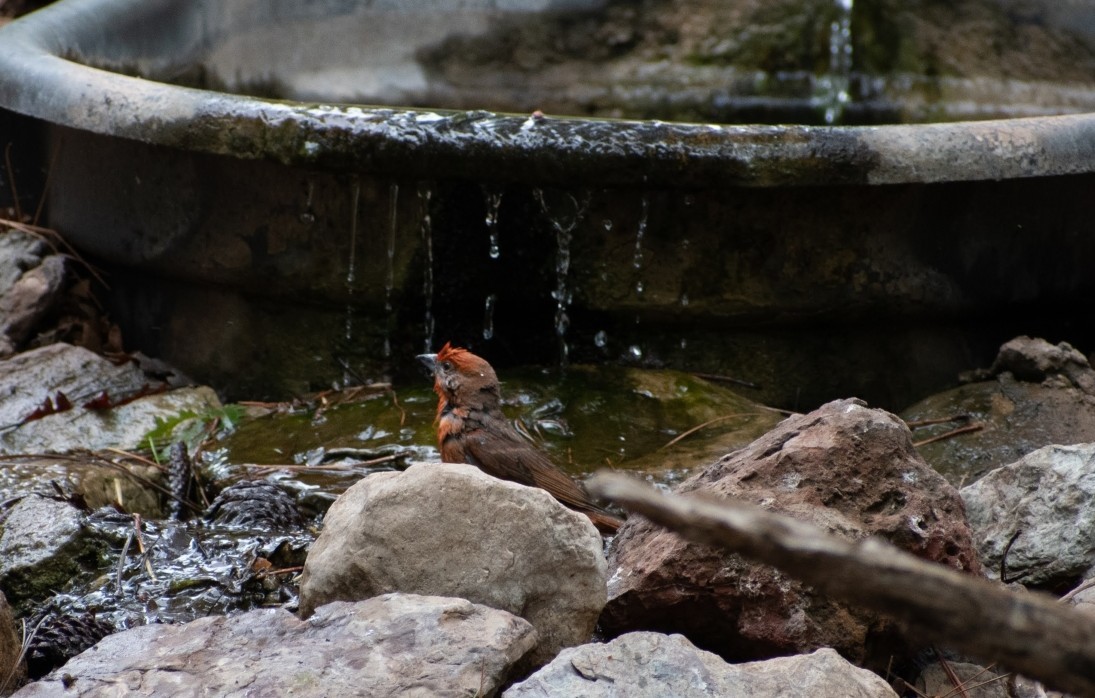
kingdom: Animalia
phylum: Chordata
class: Aves
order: Passeriformes
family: Cardinalidae
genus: Piranga
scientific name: Piranga flava
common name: Red tanager
